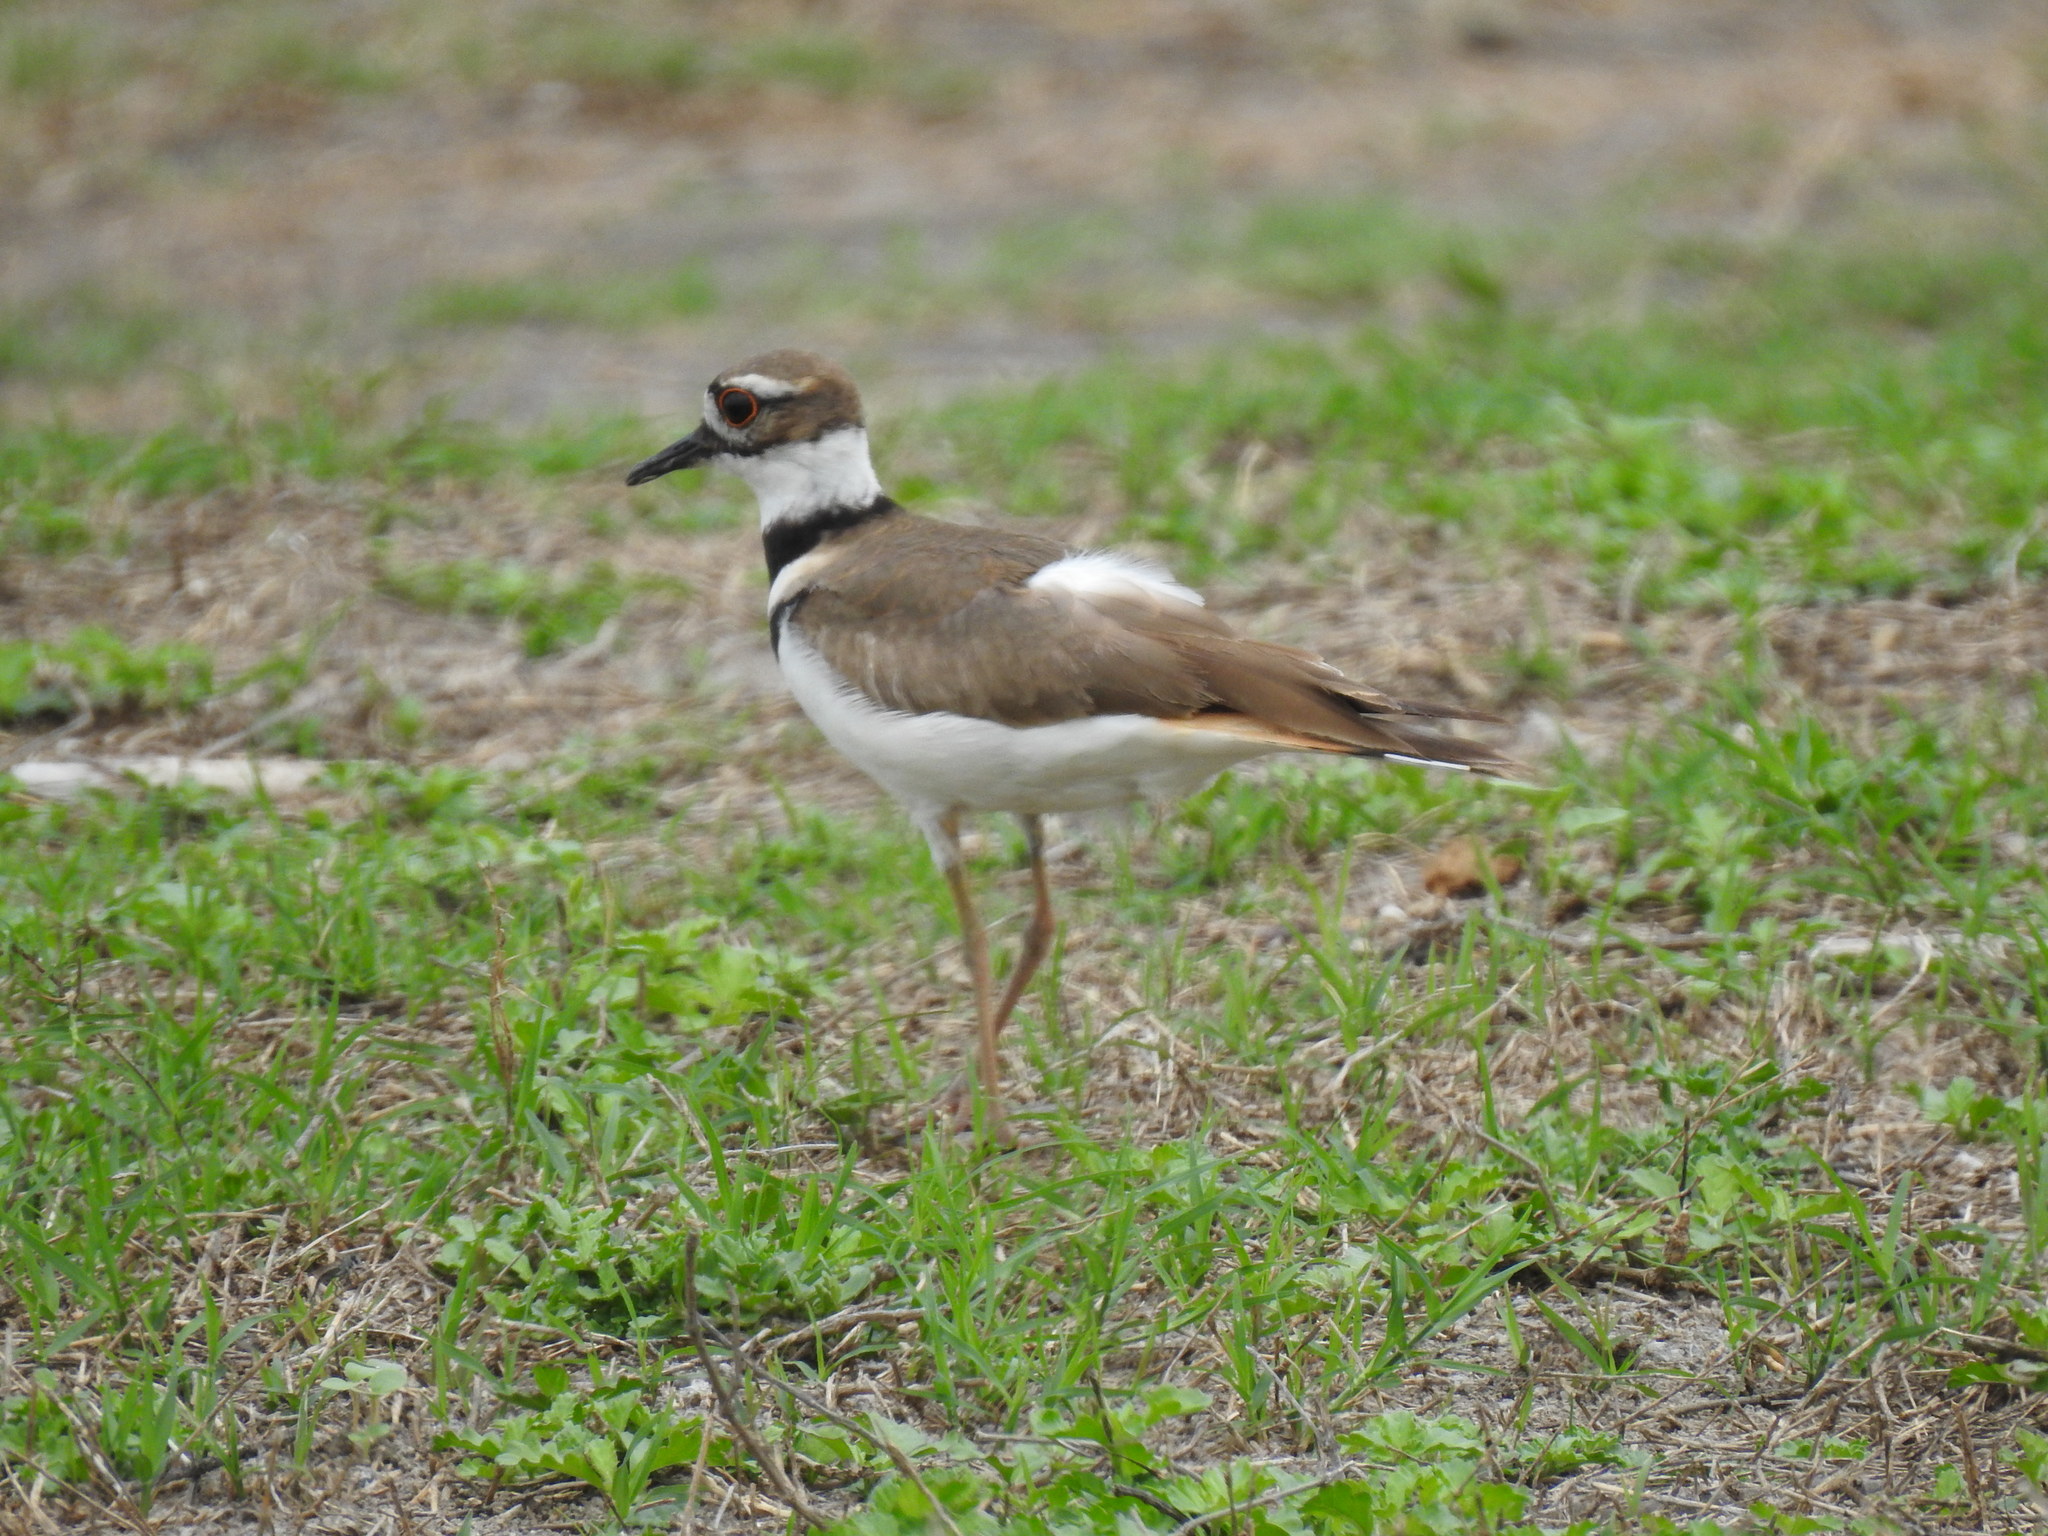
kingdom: Animalia
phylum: Chordata
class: Aves
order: Charadriiformes
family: Charadriidae
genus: Charadrius
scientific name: Charadrius vociferus
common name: Killdeer
